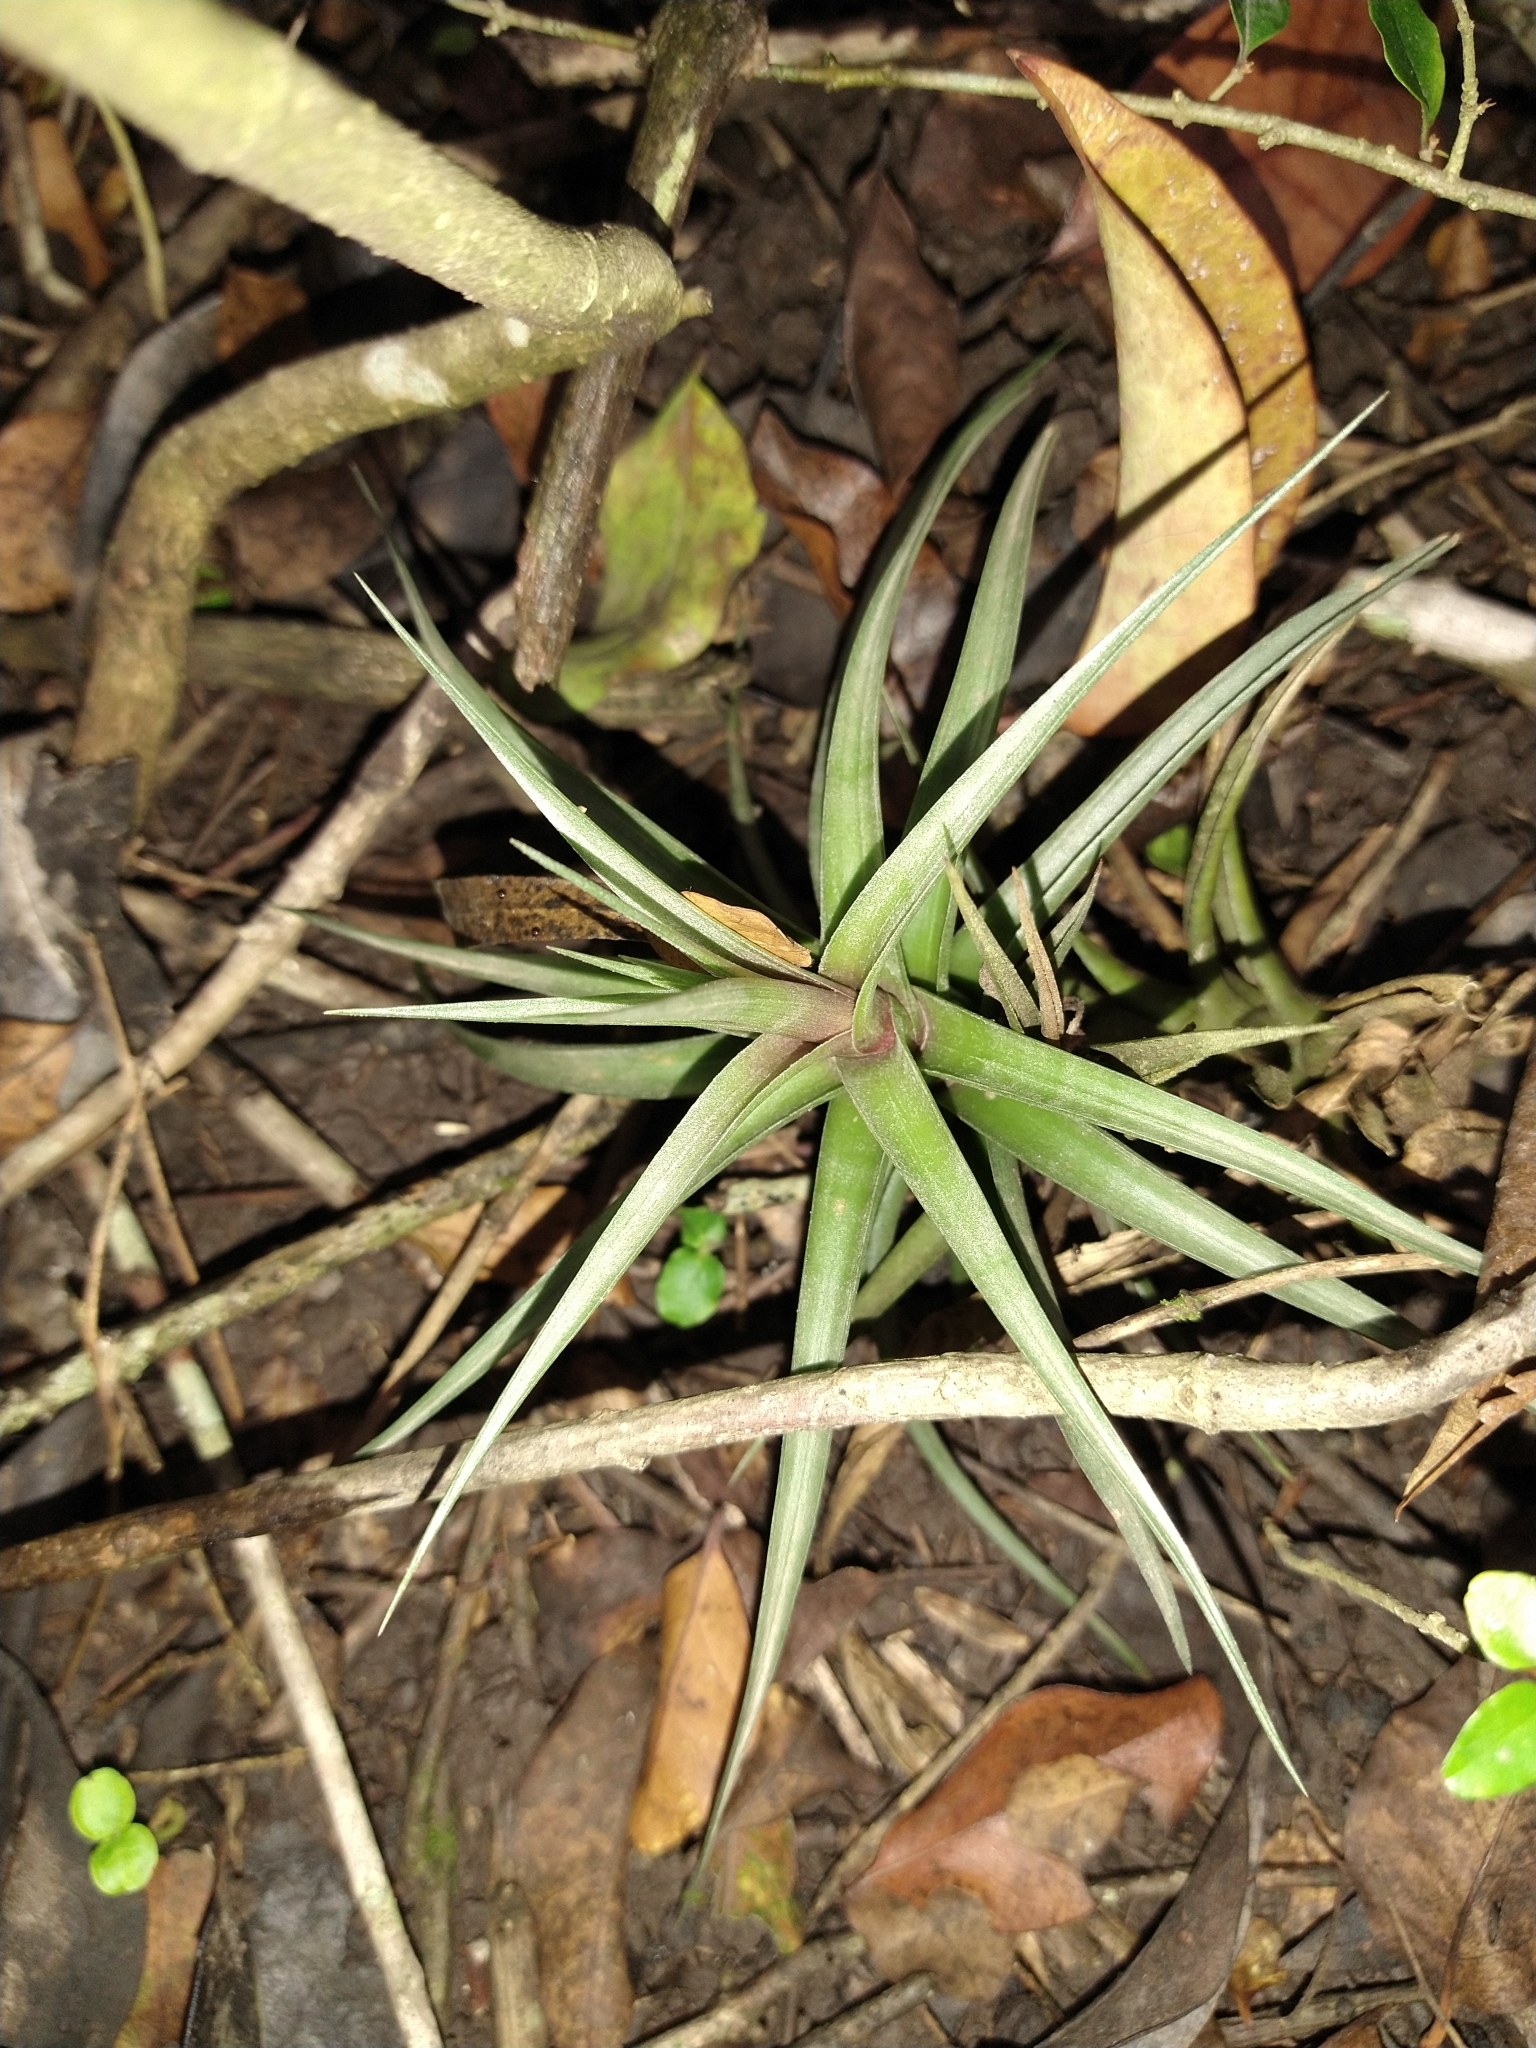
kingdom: Plantae
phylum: Tracheophyta
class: Liliopsida
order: Poales
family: Bromeliaceae
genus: Tillandsia
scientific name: Tillandsia aeranthos
